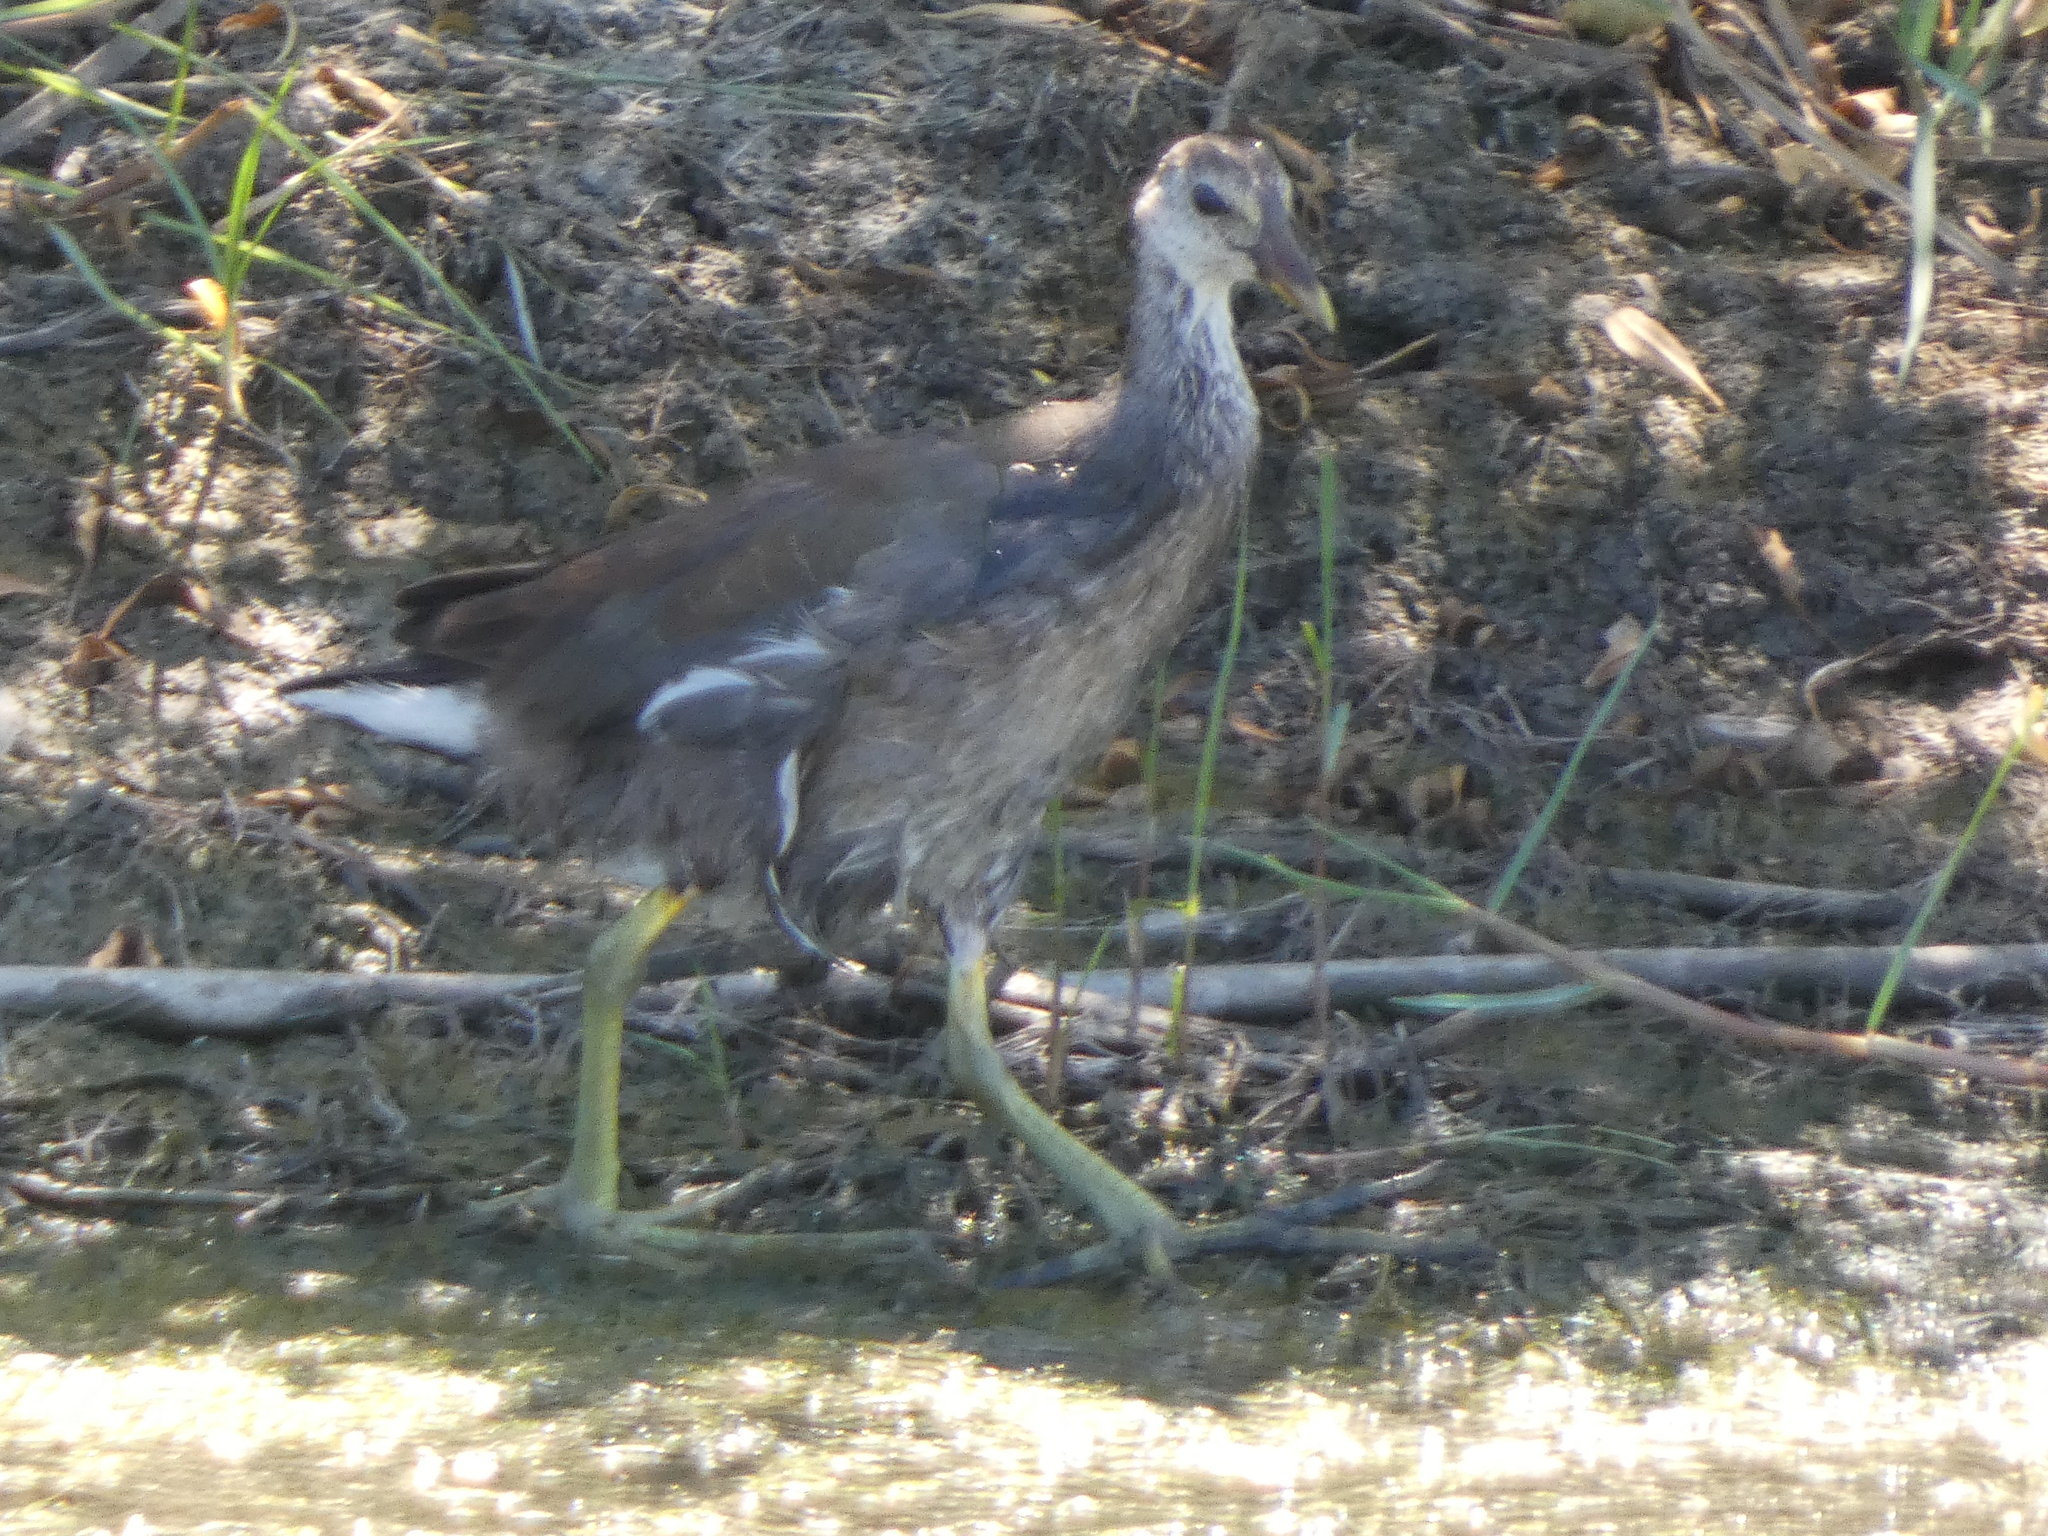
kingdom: Animalia
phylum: Chordata
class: Aves
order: Gruiformes
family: Rallidae
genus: Gallinula
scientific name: Gallinula chloropus
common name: Common moorhen
